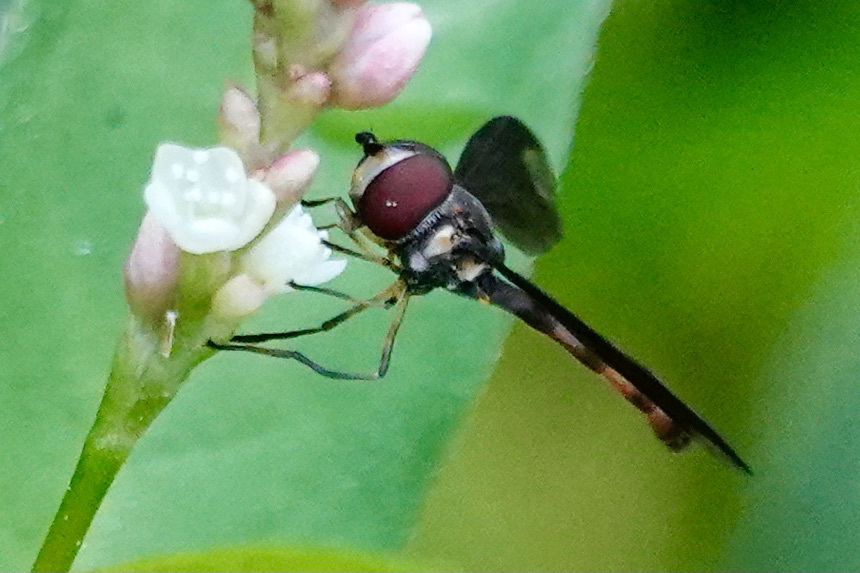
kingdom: Animalia
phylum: Arthropoda
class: Insecta
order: Diptera
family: Syrphidae
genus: Ocyptamus
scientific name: Ocyptamus fuscipennis
